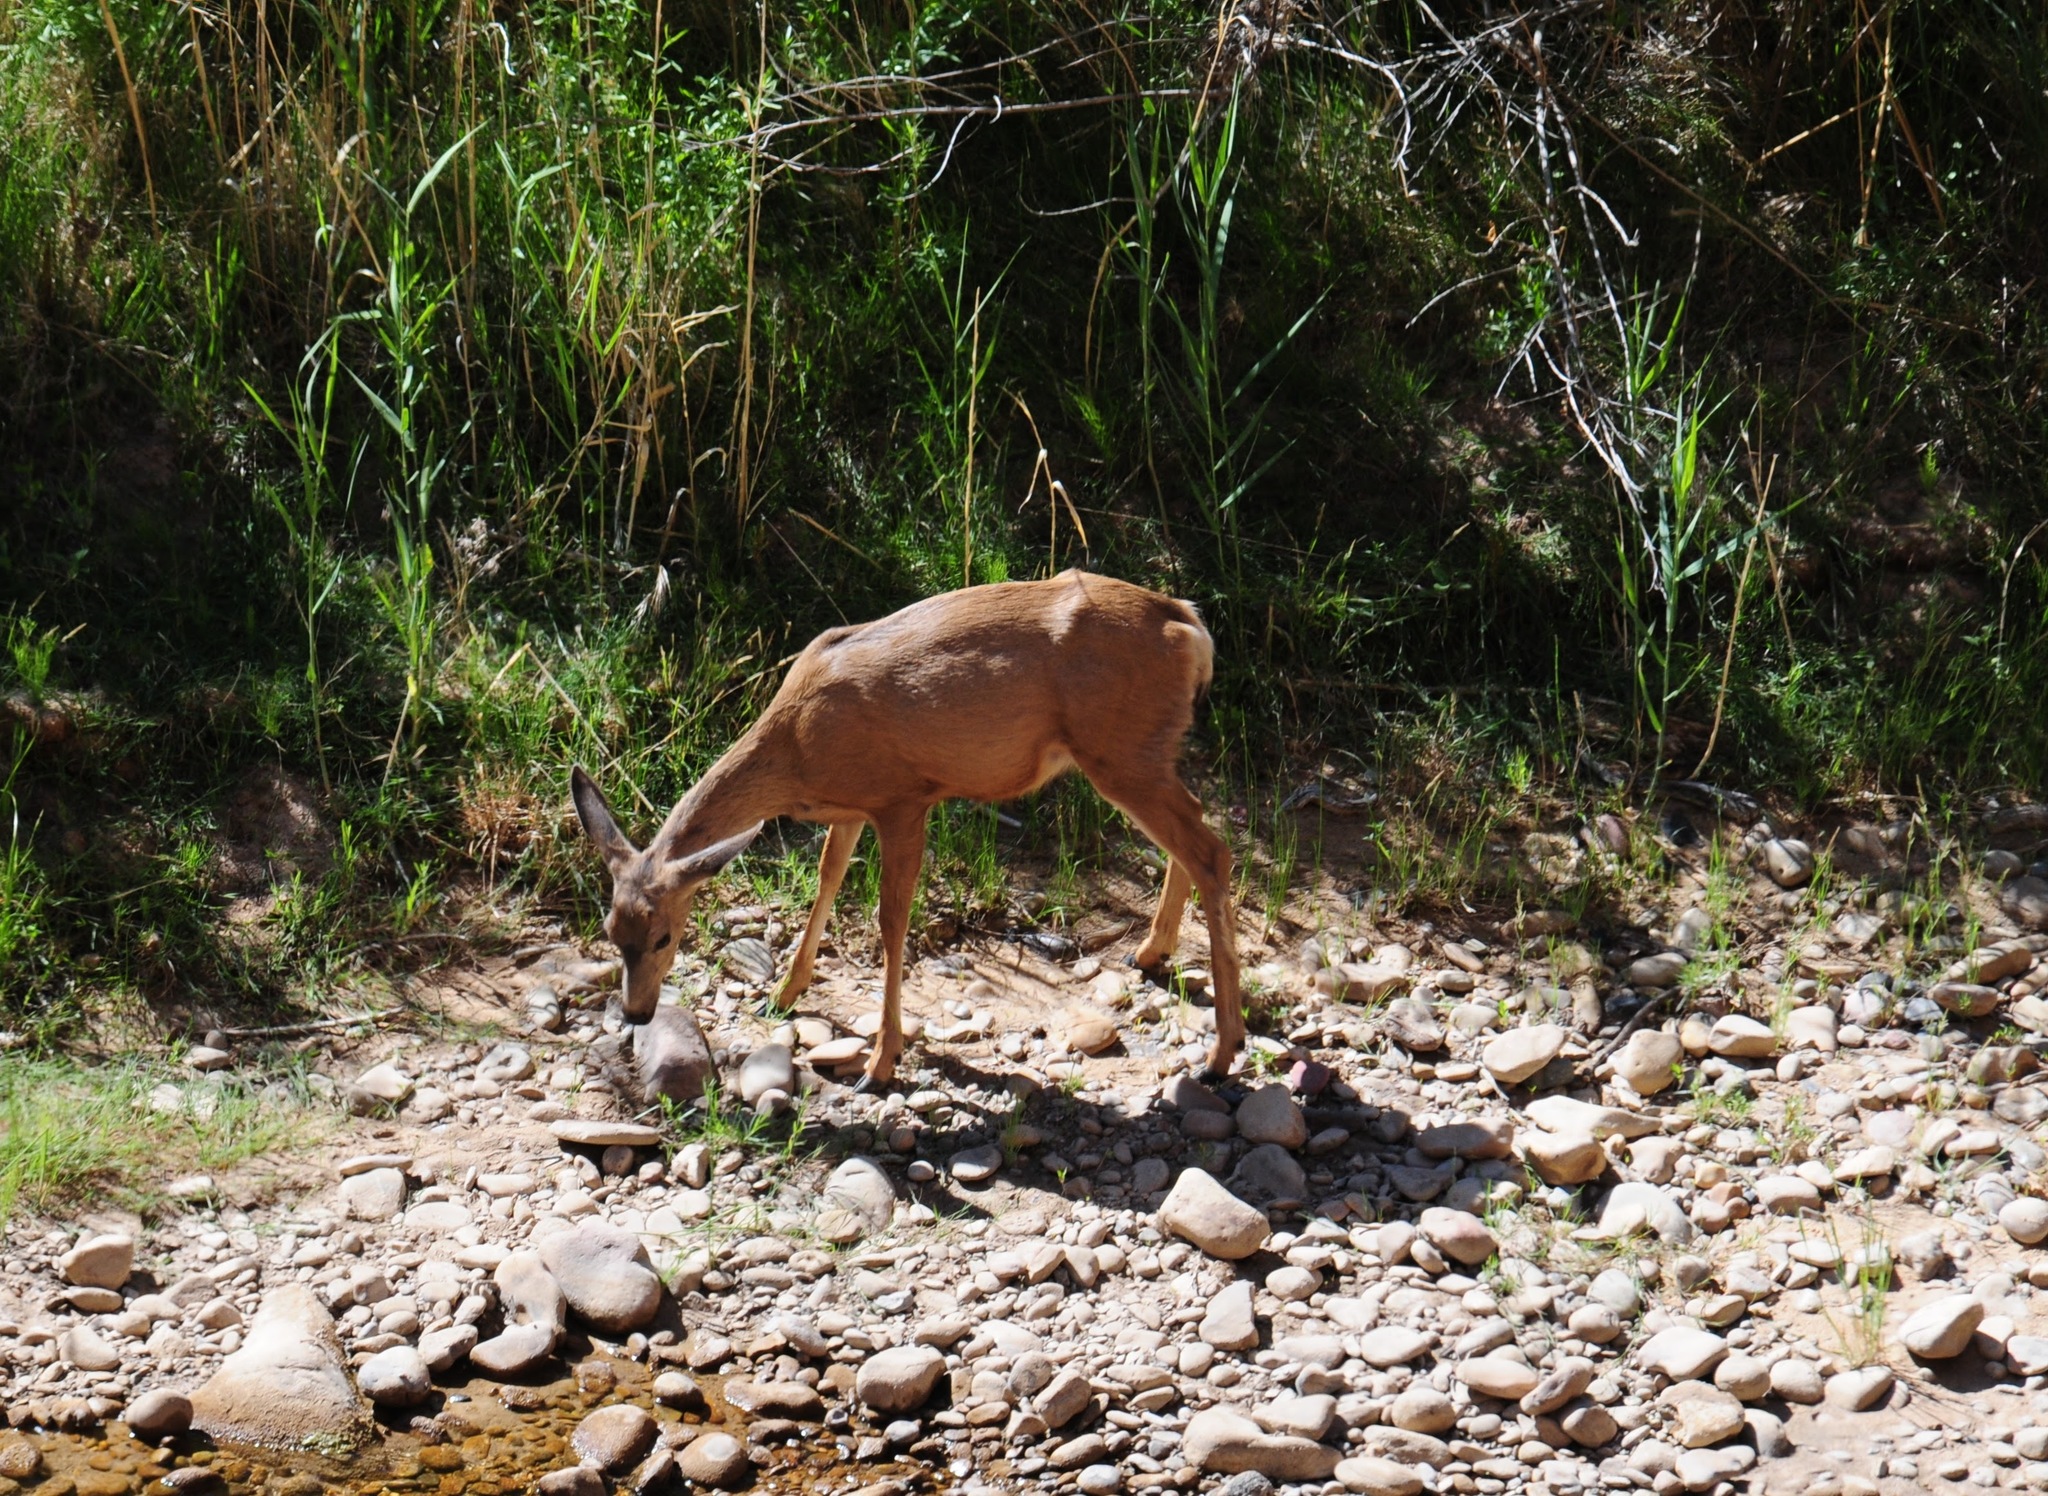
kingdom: Animalia
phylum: Chordata
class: Mammalia
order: Artiodactyla
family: Cervidae
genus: Odocoileus
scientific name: Odocoileus hemionus
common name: Mule deer
